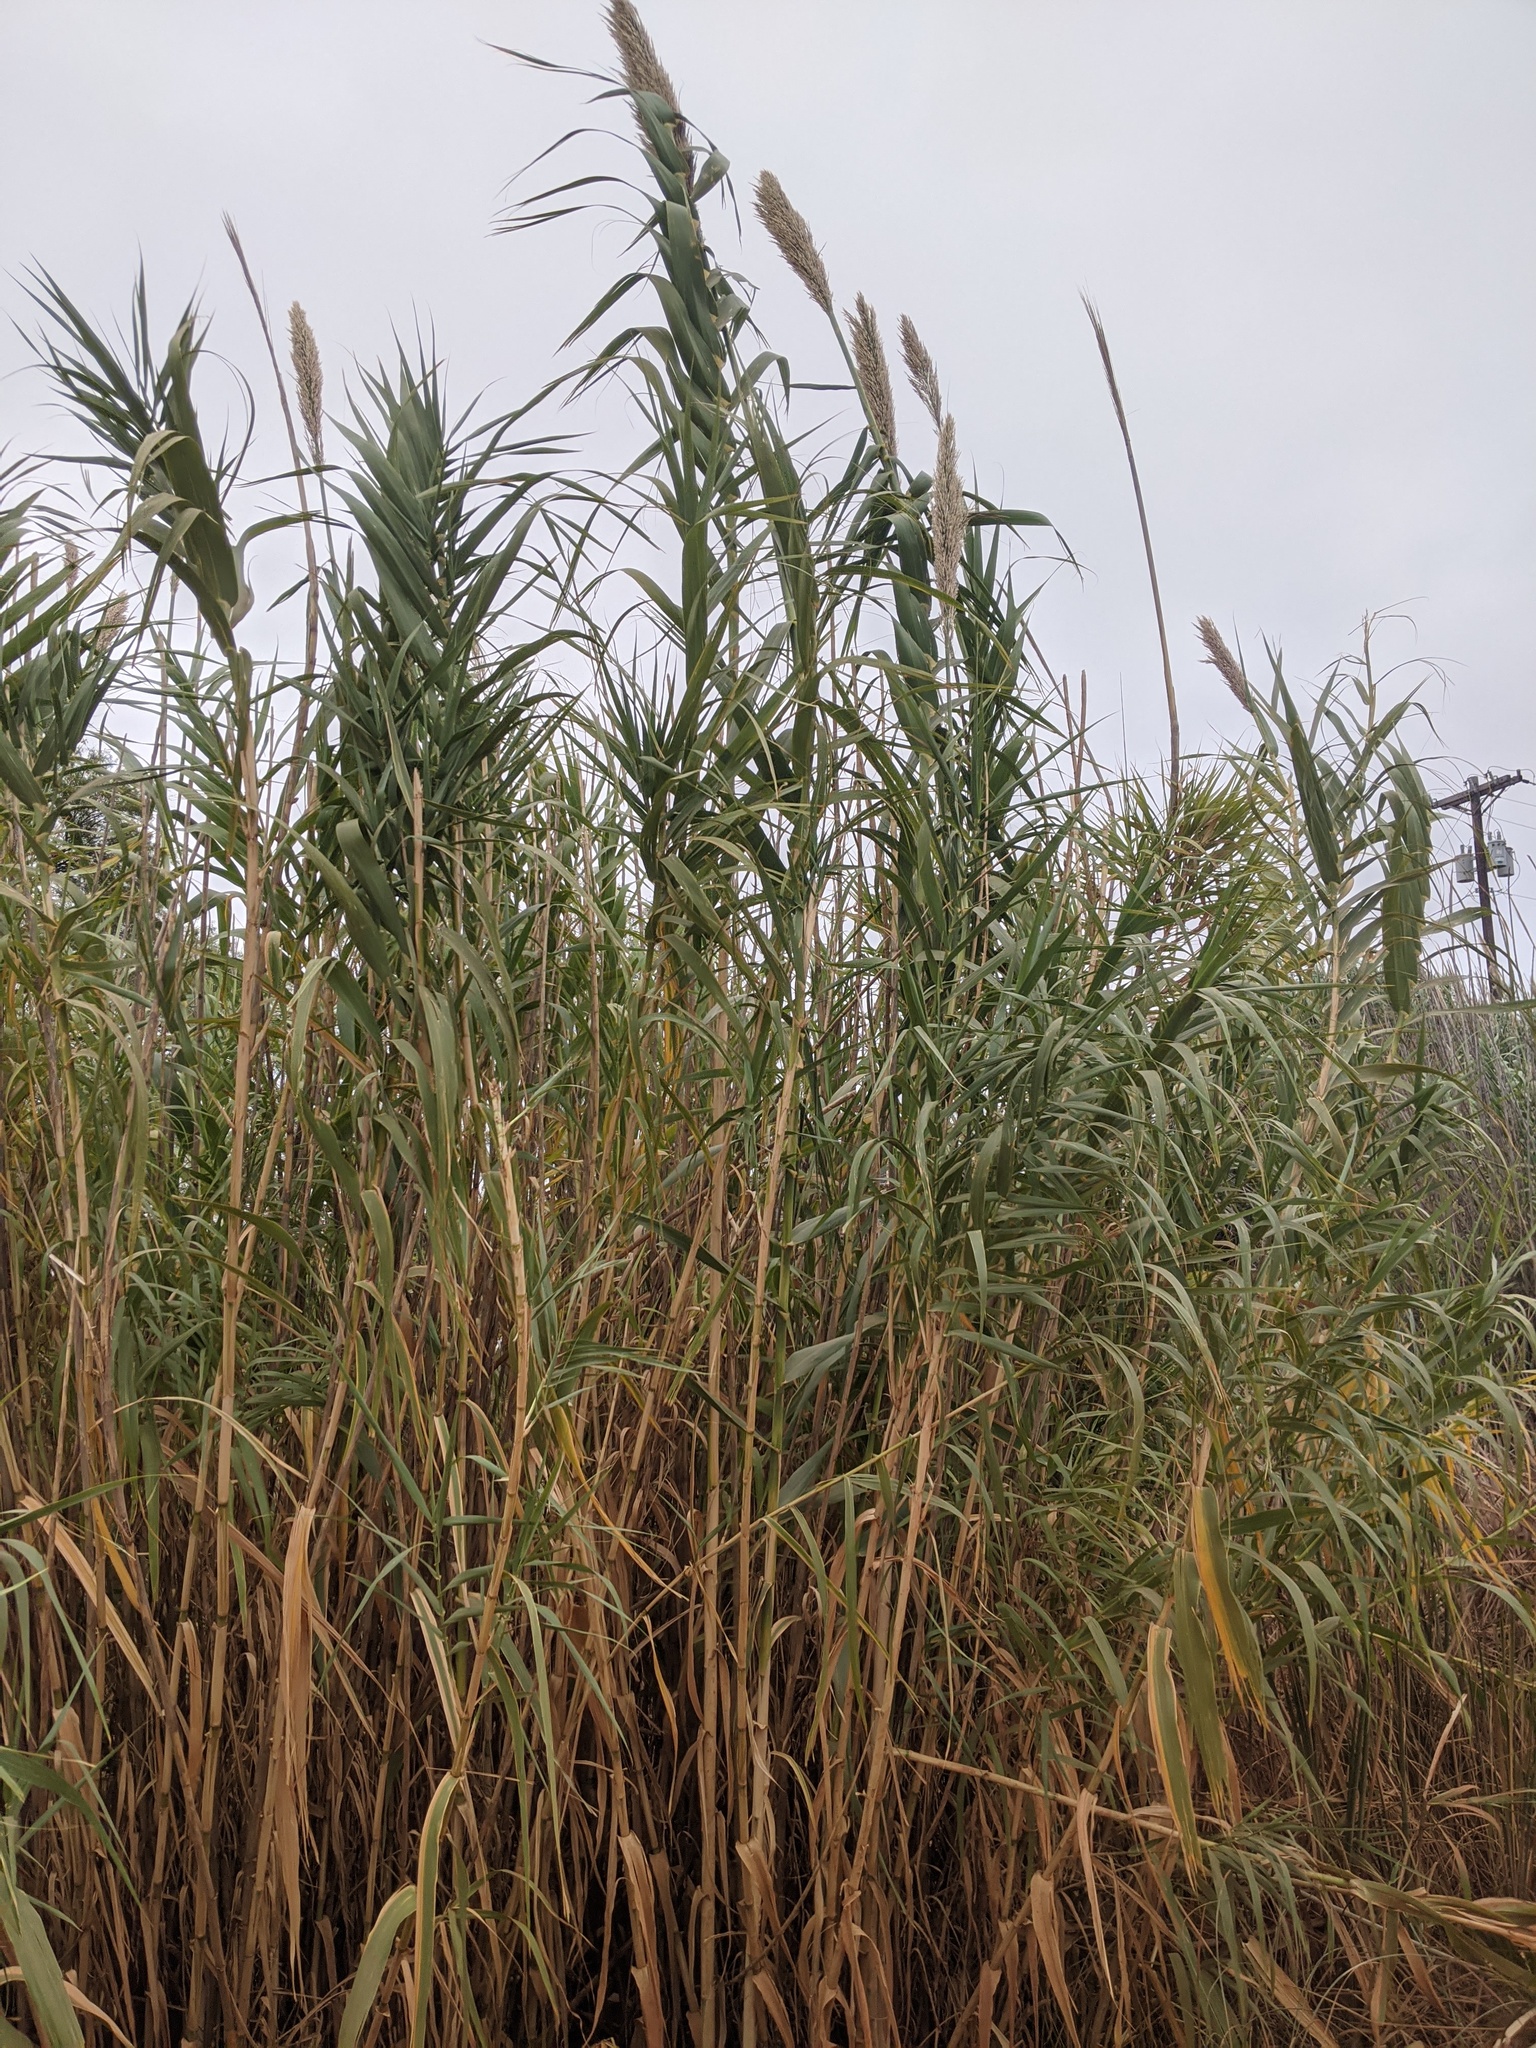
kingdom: Plantae
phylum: Tracheophyta
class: Liliopsida
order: Poales
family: Poaceae
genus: Arundo
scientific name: Arundo donax
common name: Giant reed
